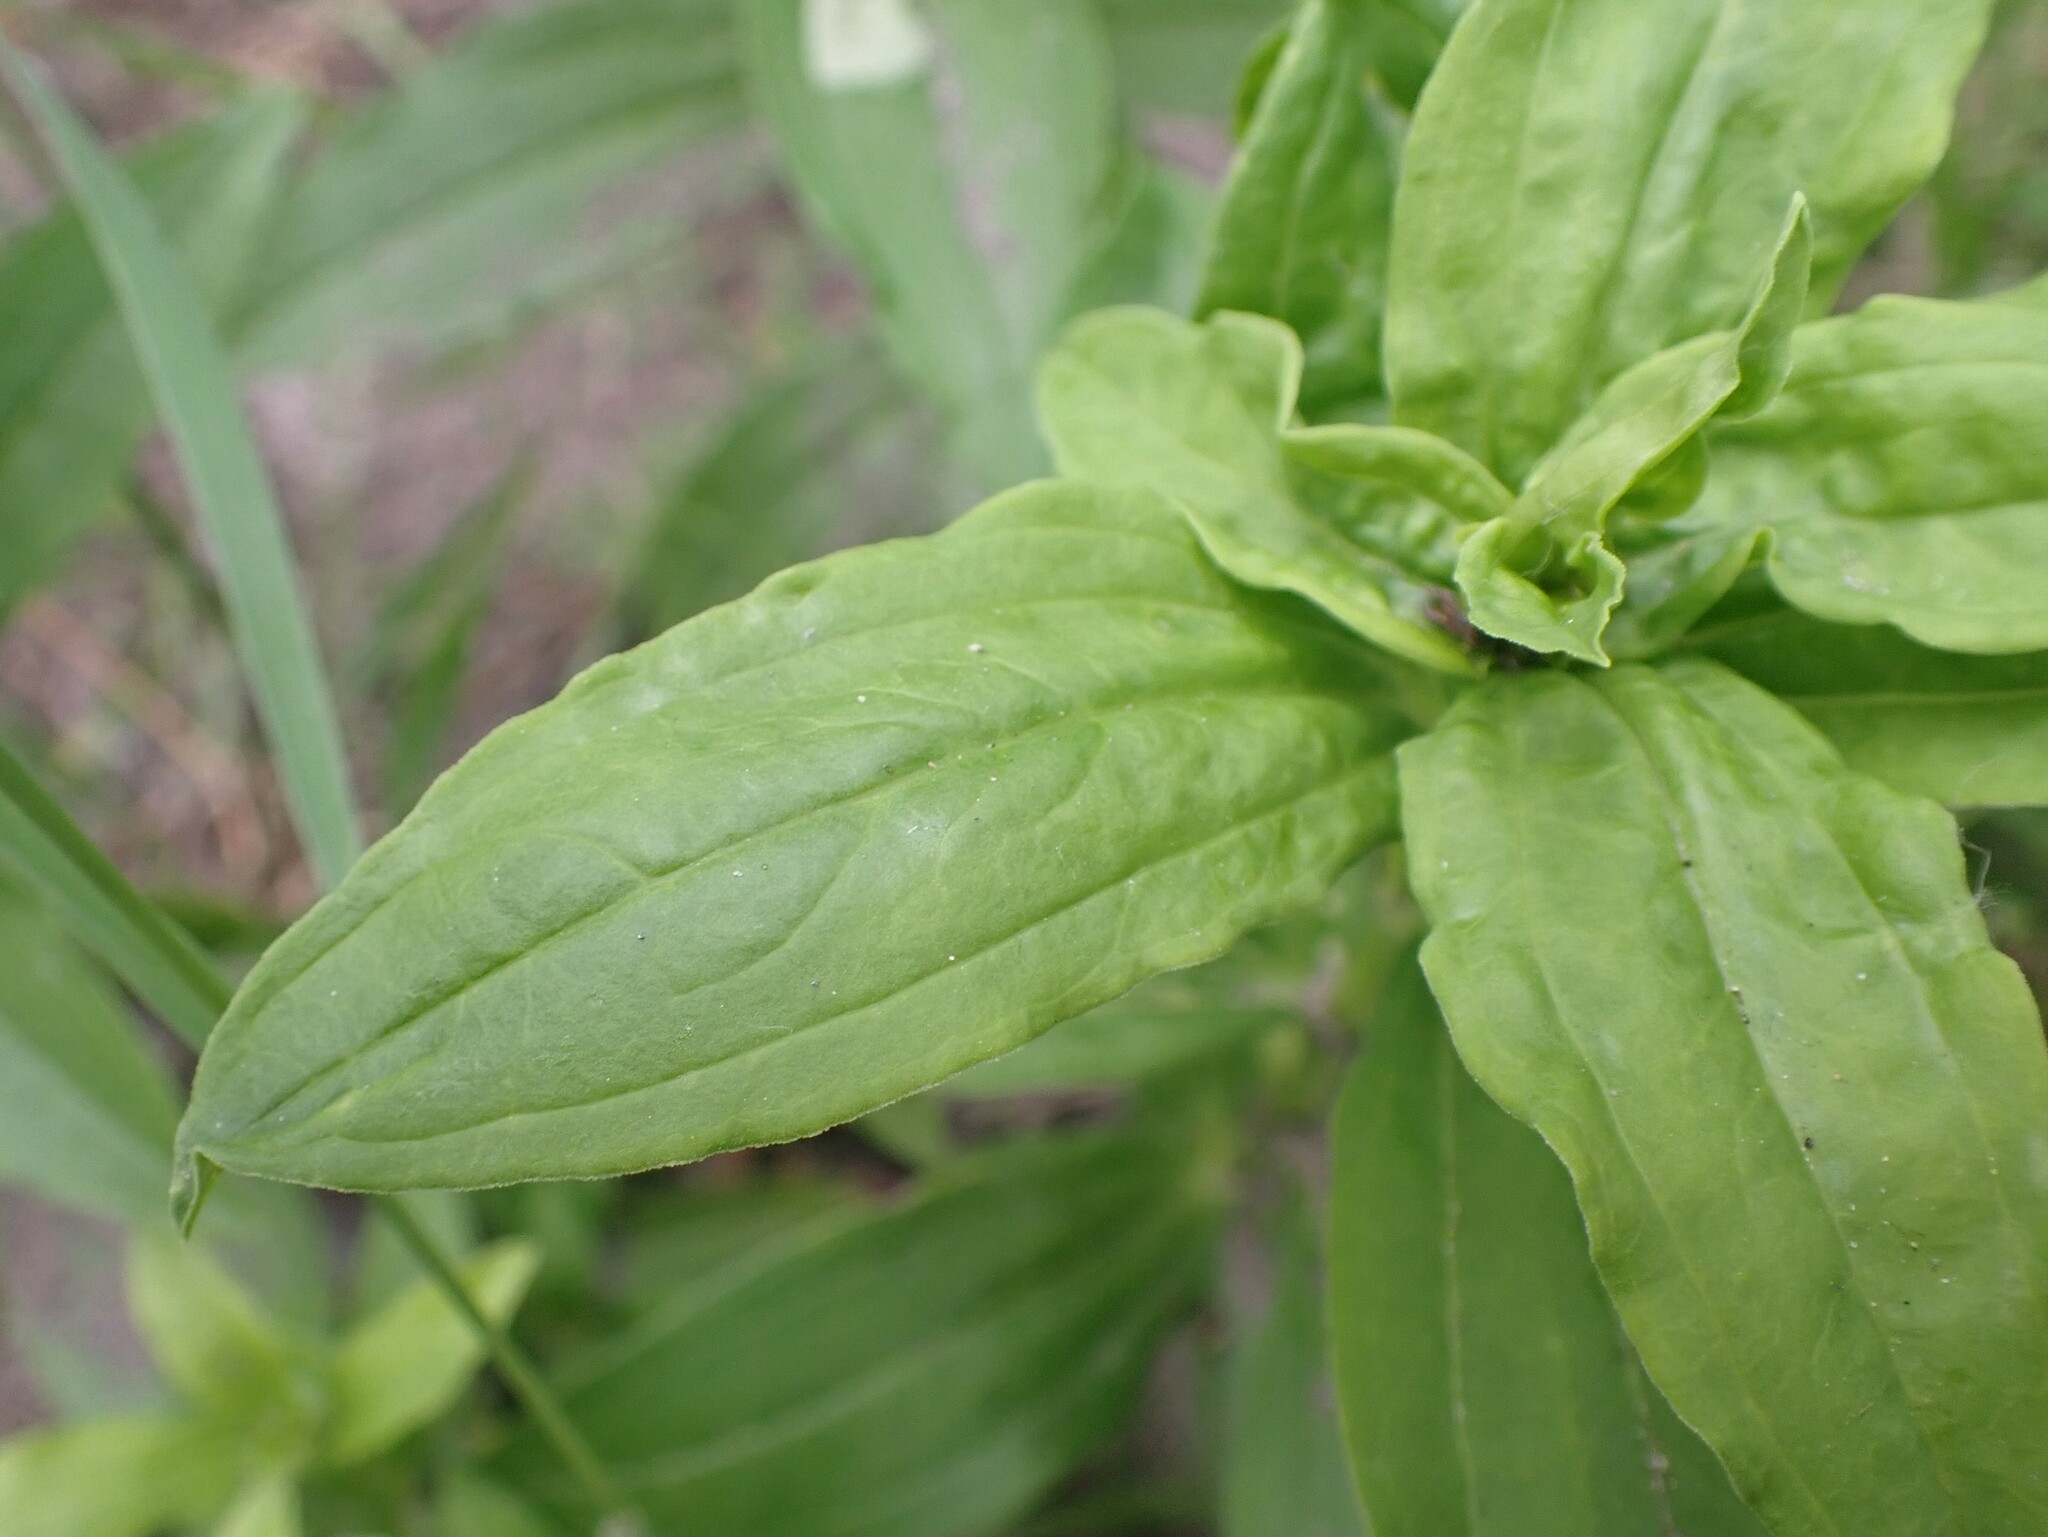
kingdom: Plantae
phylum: Tracheophyta
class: Magnoliopsida
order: Caryophyllales
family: Caryophyllaceae
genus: Saponaria
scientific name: Saponaria officinalis
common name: Soapwort
